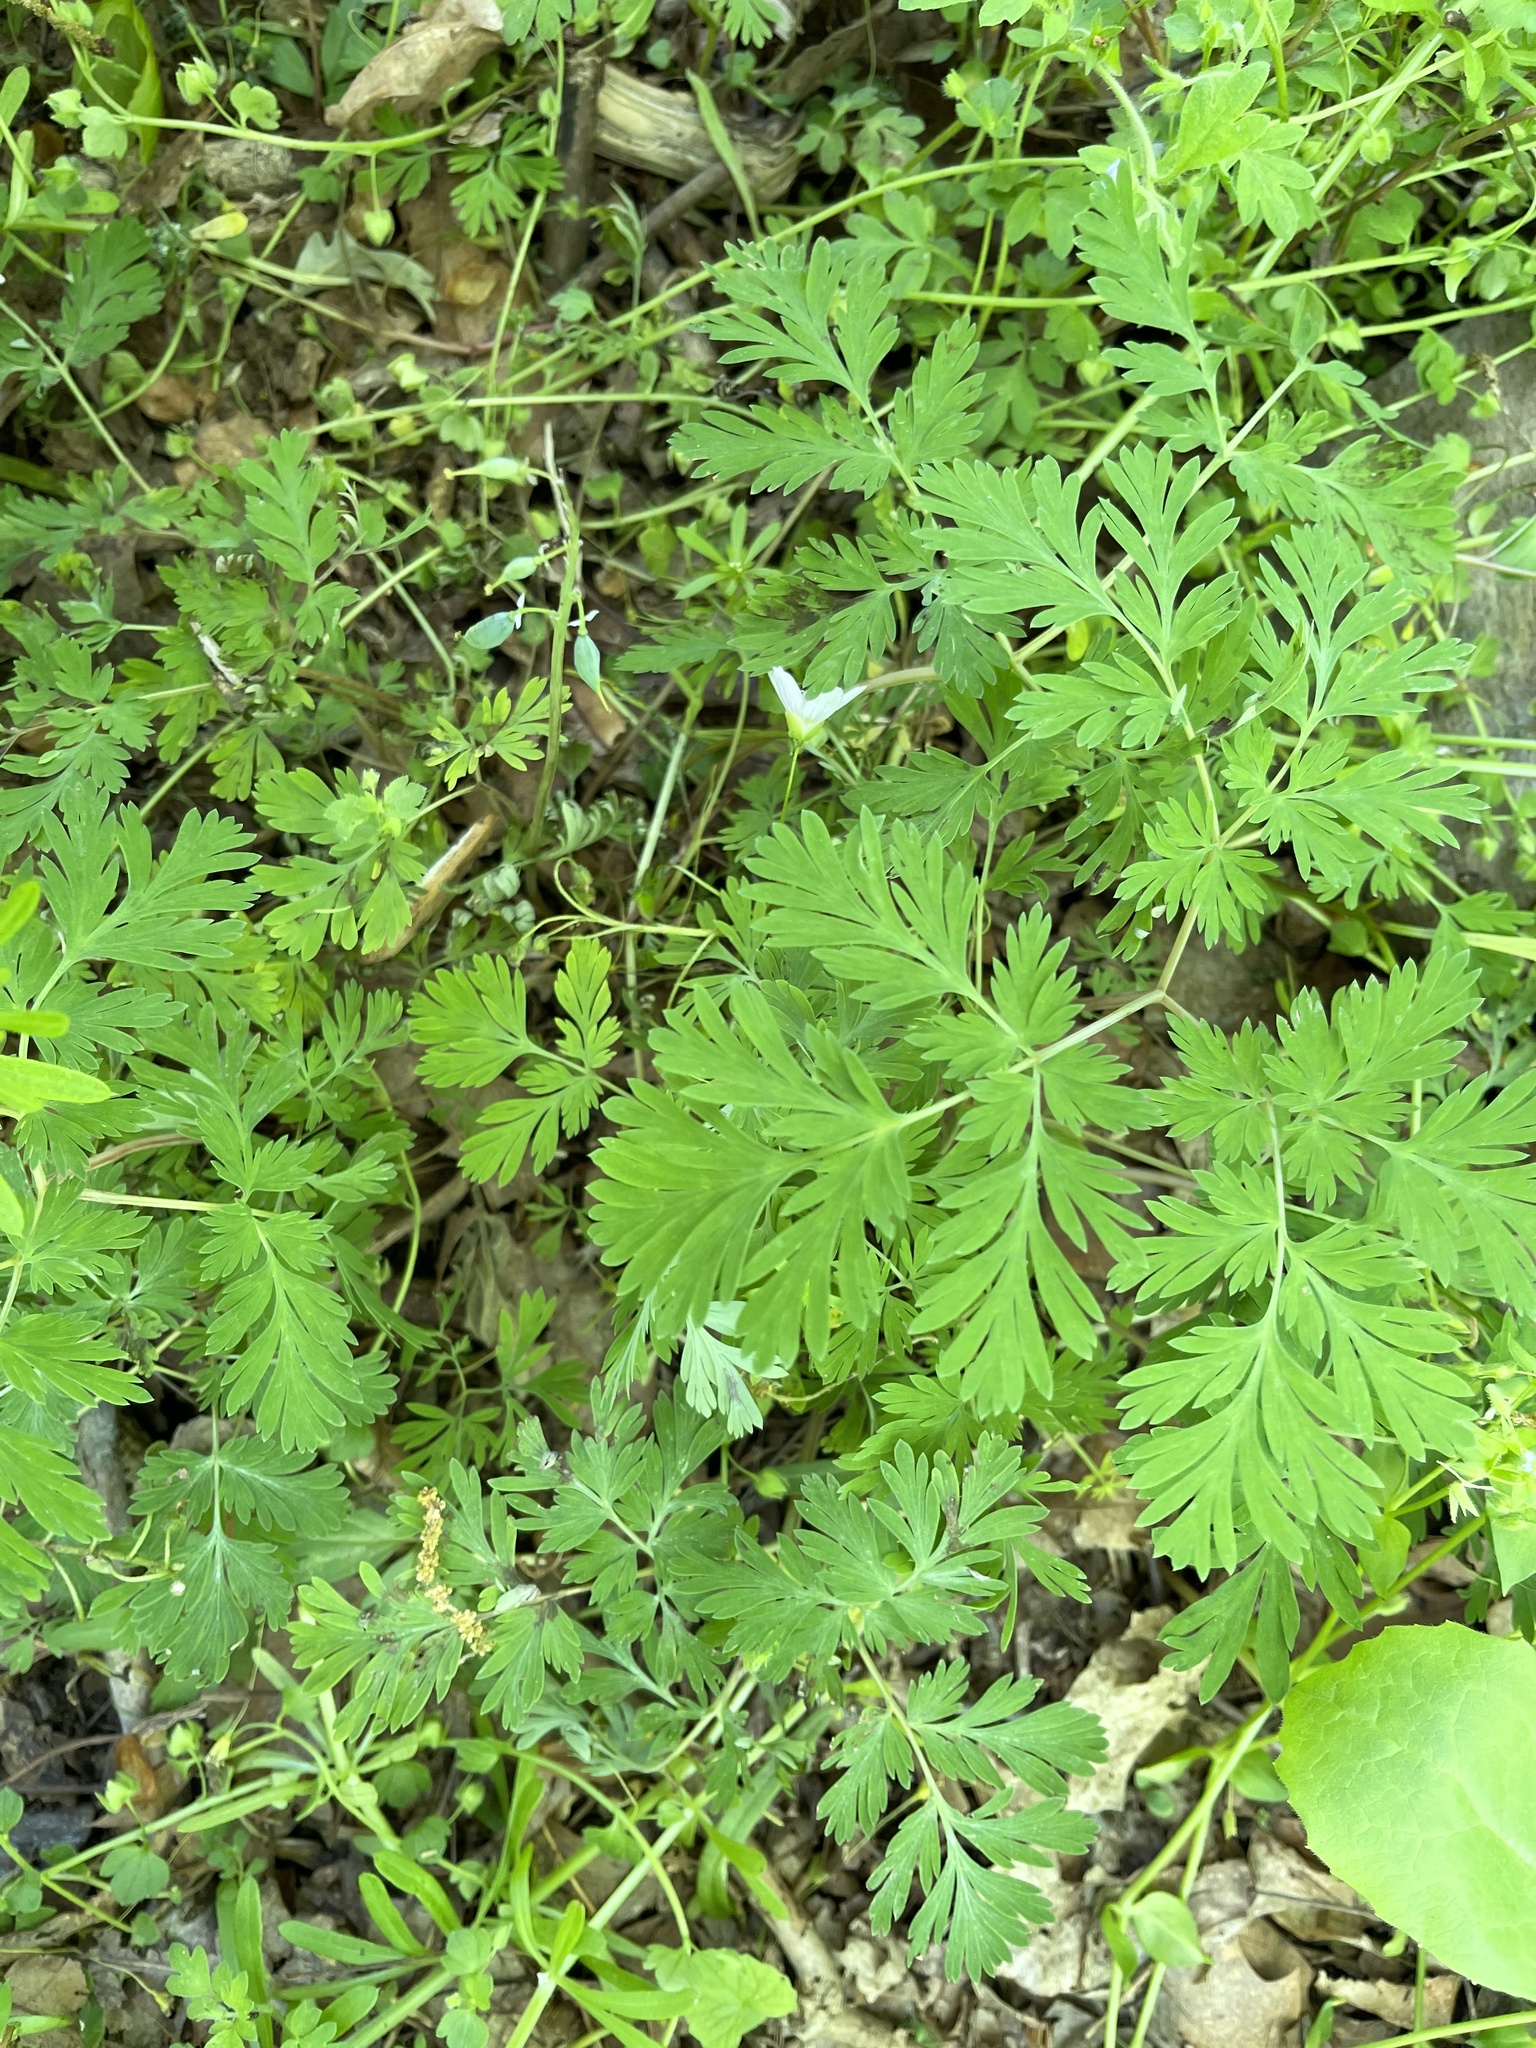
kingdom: Plantae
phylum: Tracheophyta
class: Magnoliopsida
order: Ranunculales
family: Papaveraceae
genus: Dicentra
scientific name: Dicentra cucullaria
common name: Dutchman's breeches
